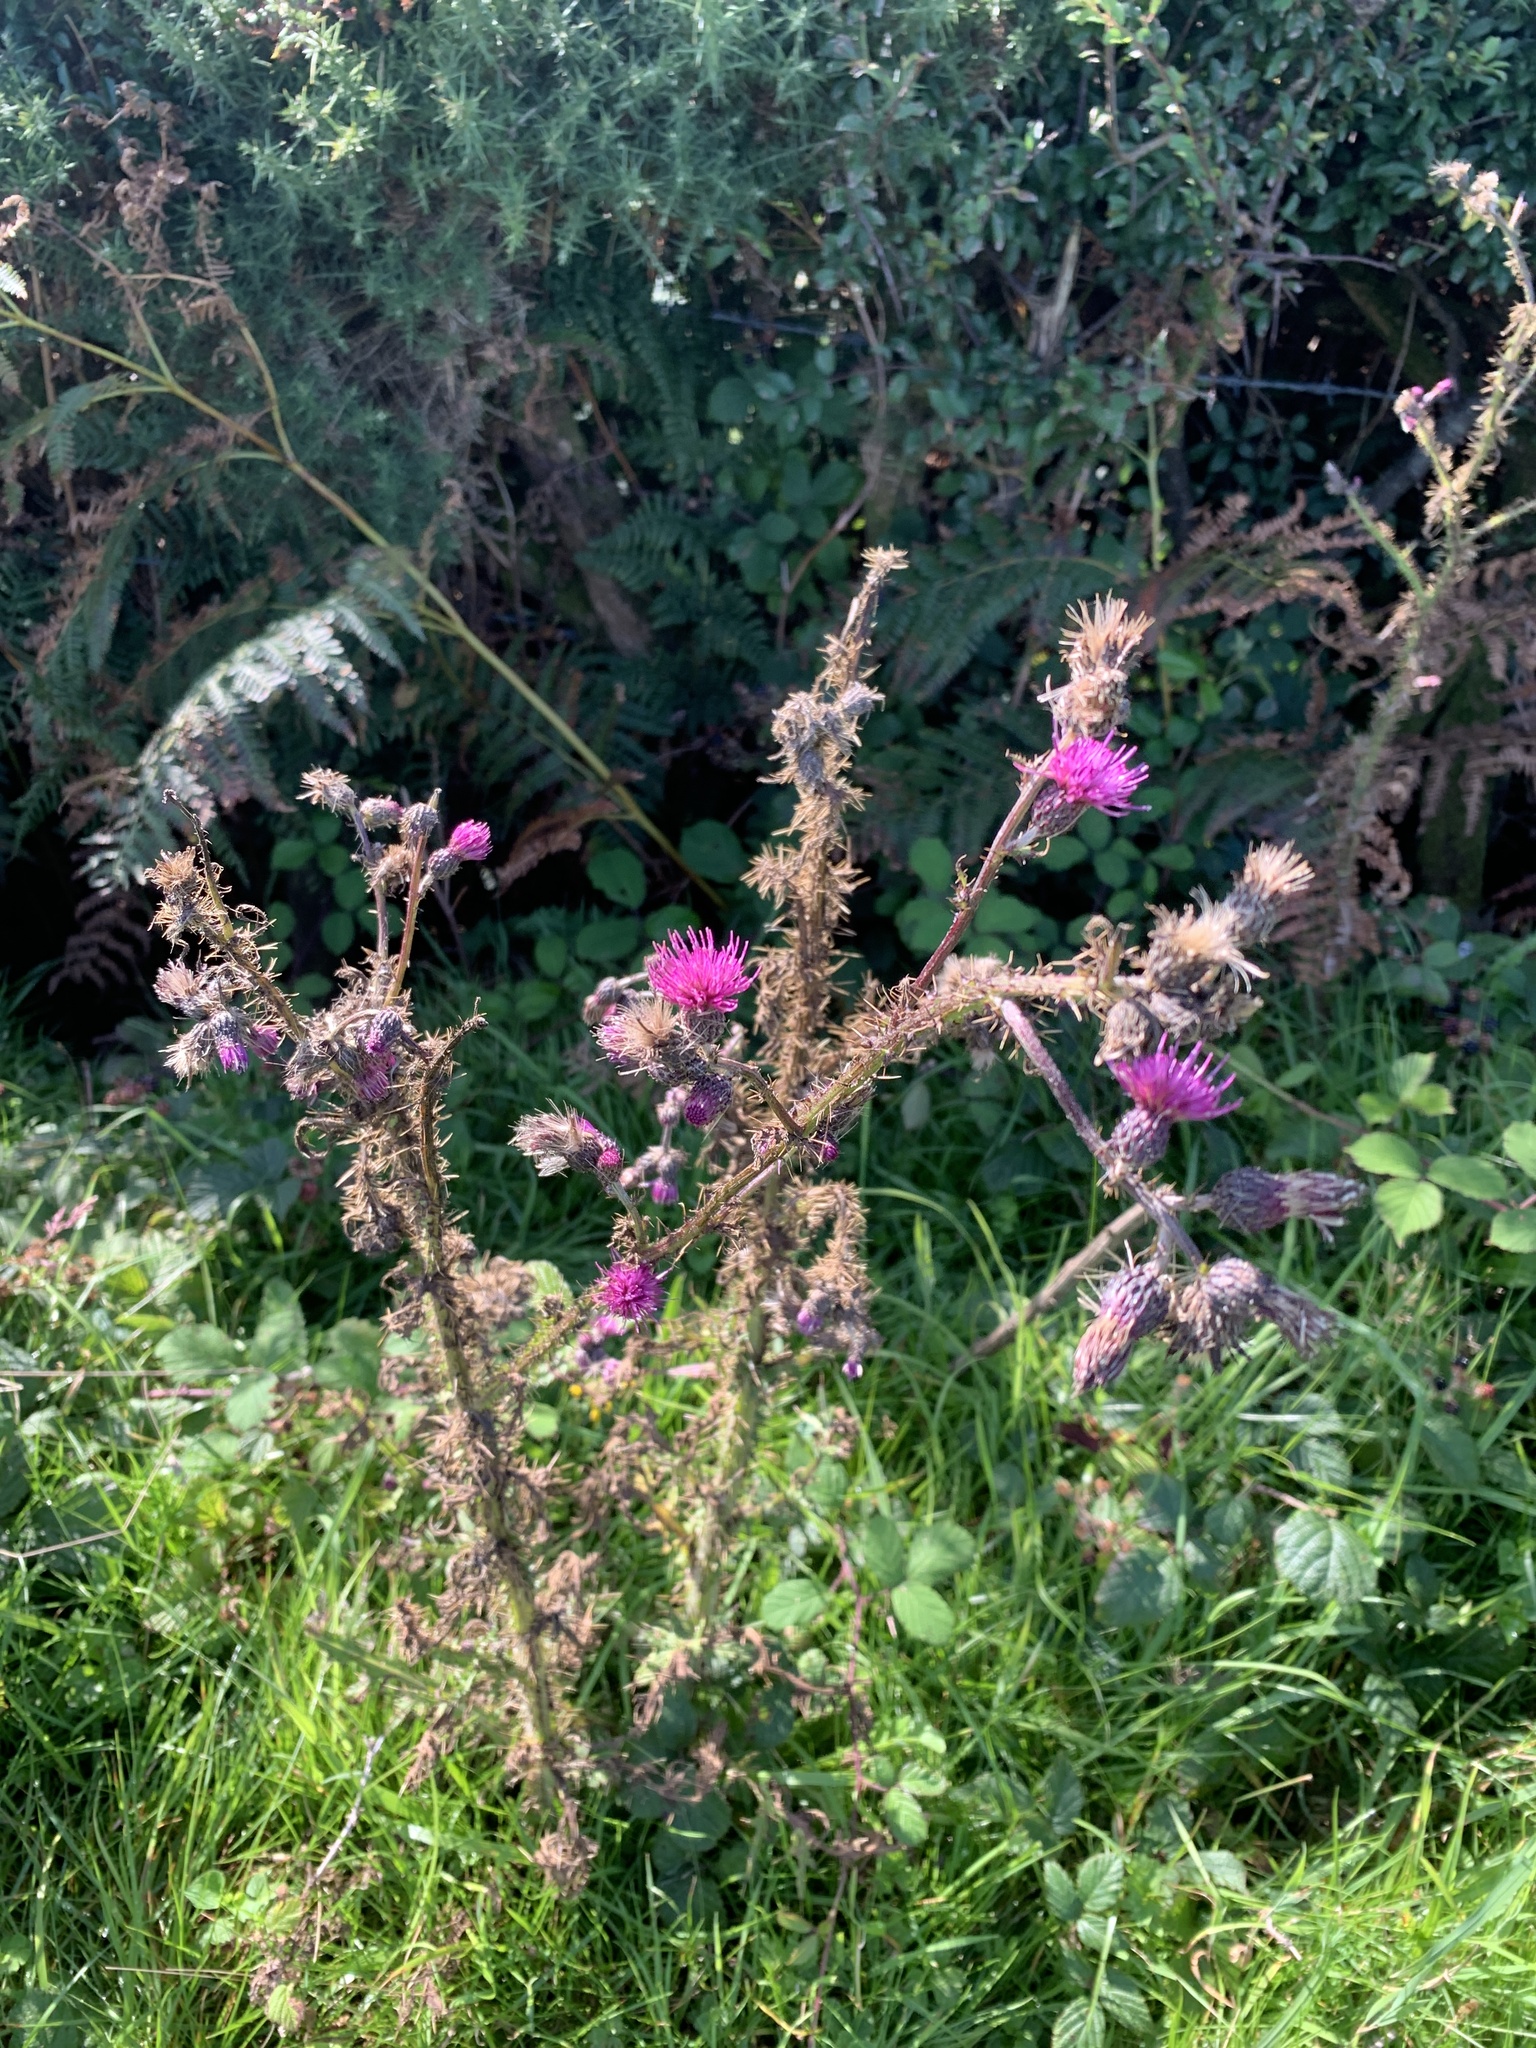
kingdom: Plantae
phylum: Tracheophyta
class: Magnoliopsida
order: Asterales
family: Asteraceae
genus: Cirsium
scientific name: Cirsium palustre
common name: Marsh thistle
